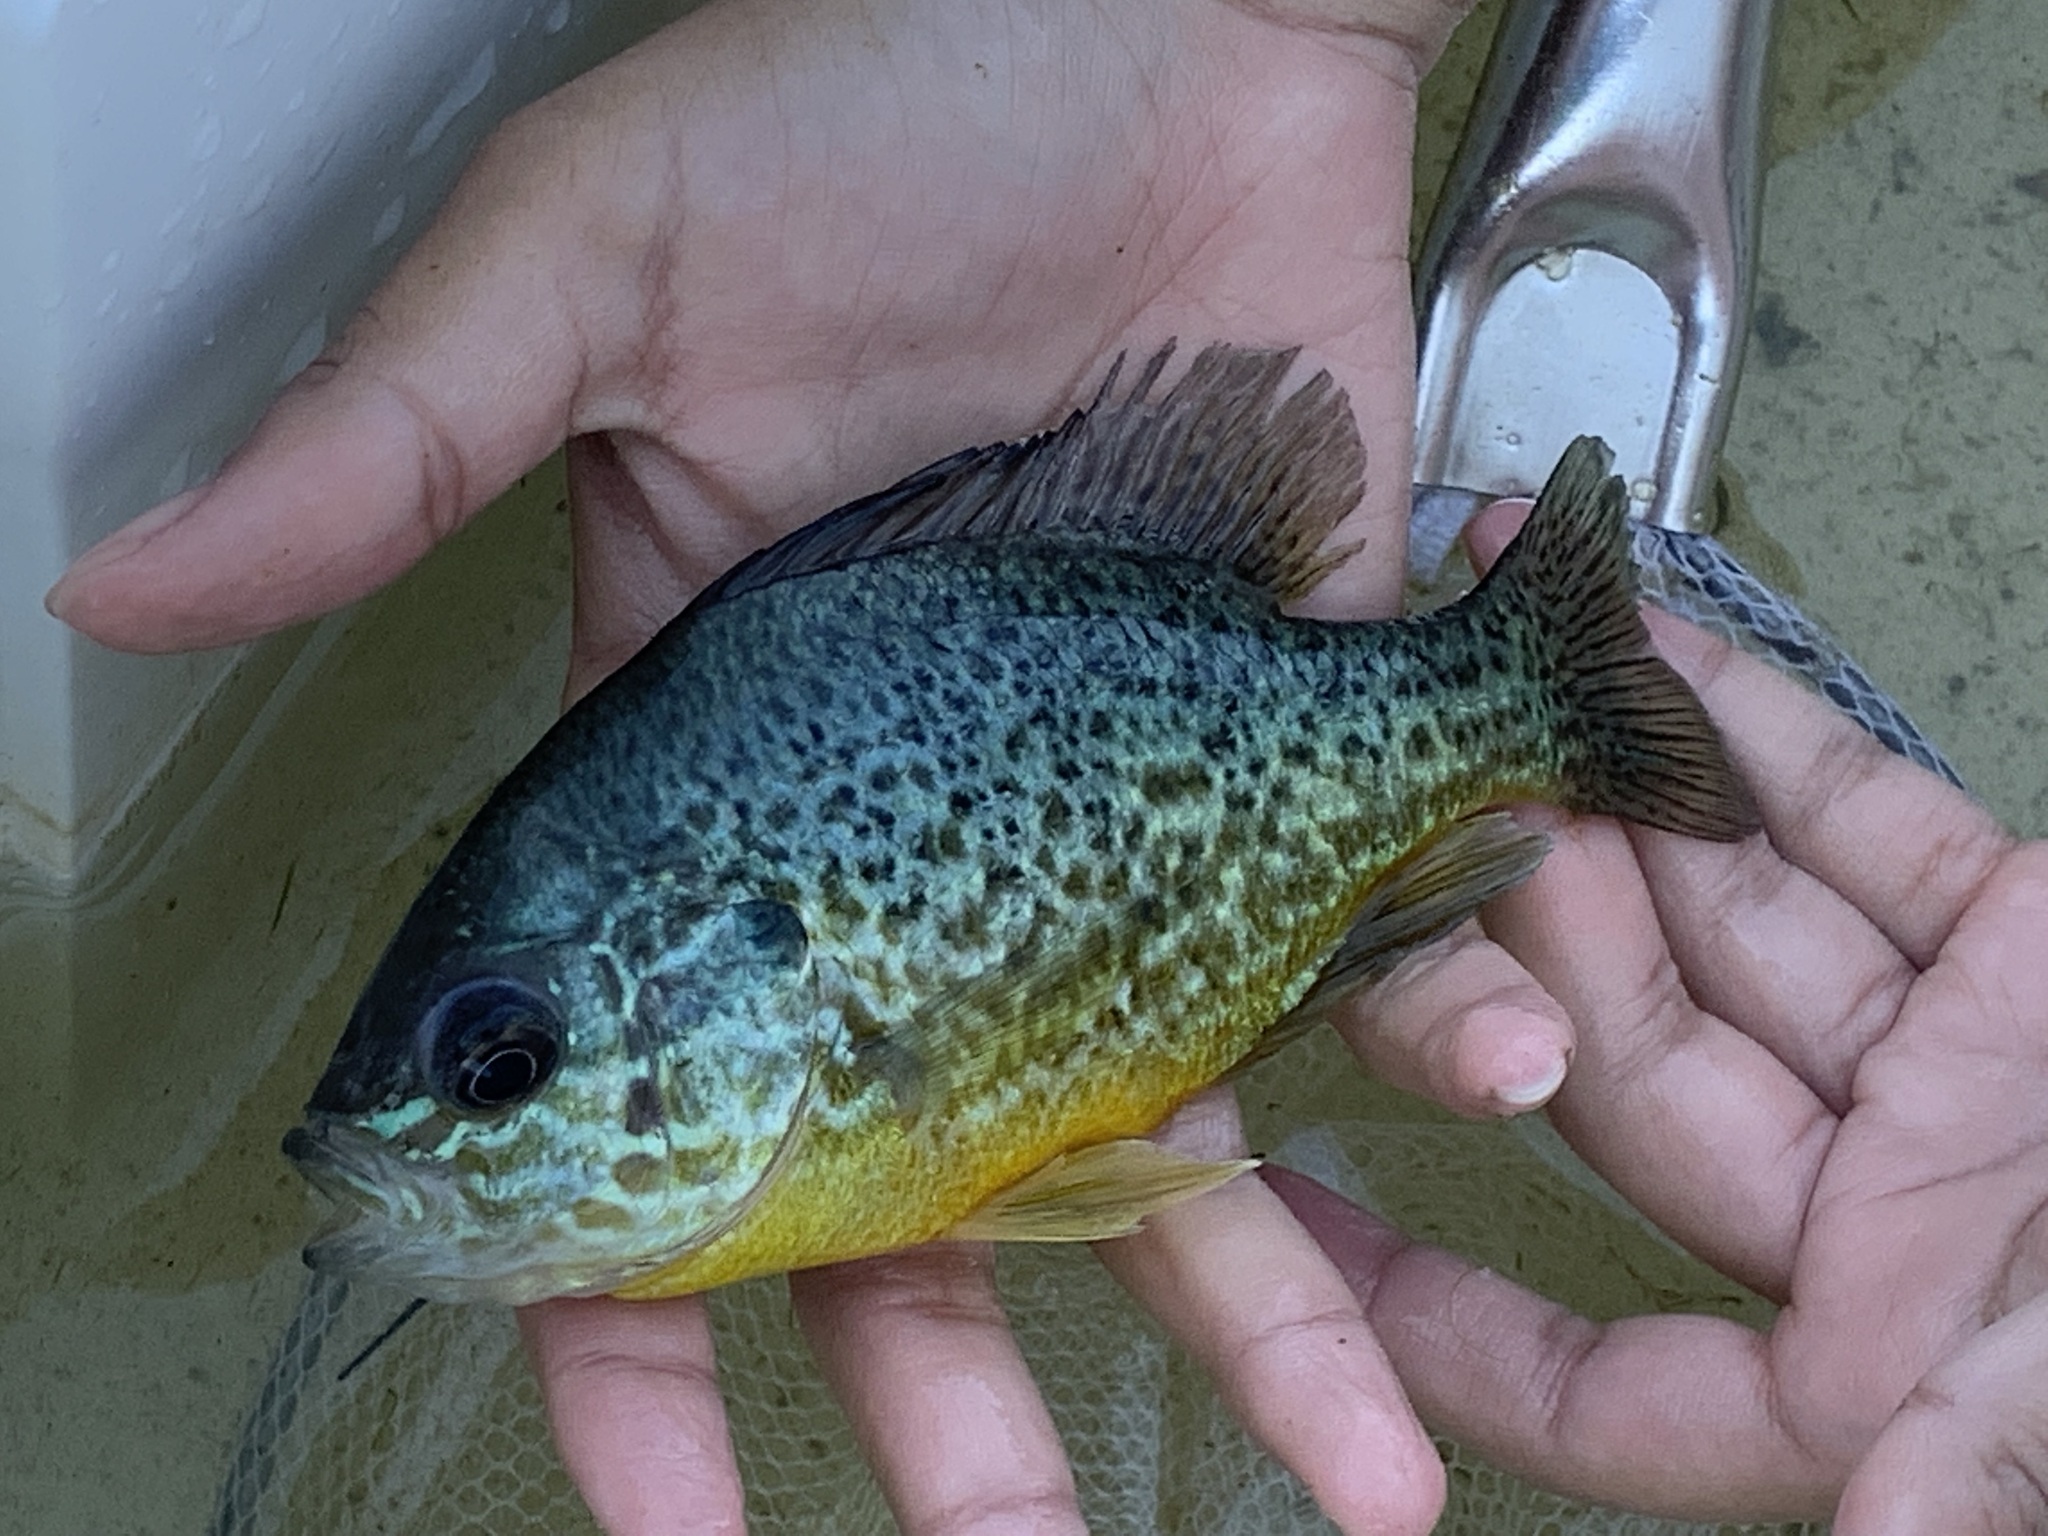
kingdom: Animalia
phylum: Chordata
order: Perciformes
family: Centrarchidae
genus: Lepomis
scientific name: Lepomis gibbosus
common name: Pumpkinseed
